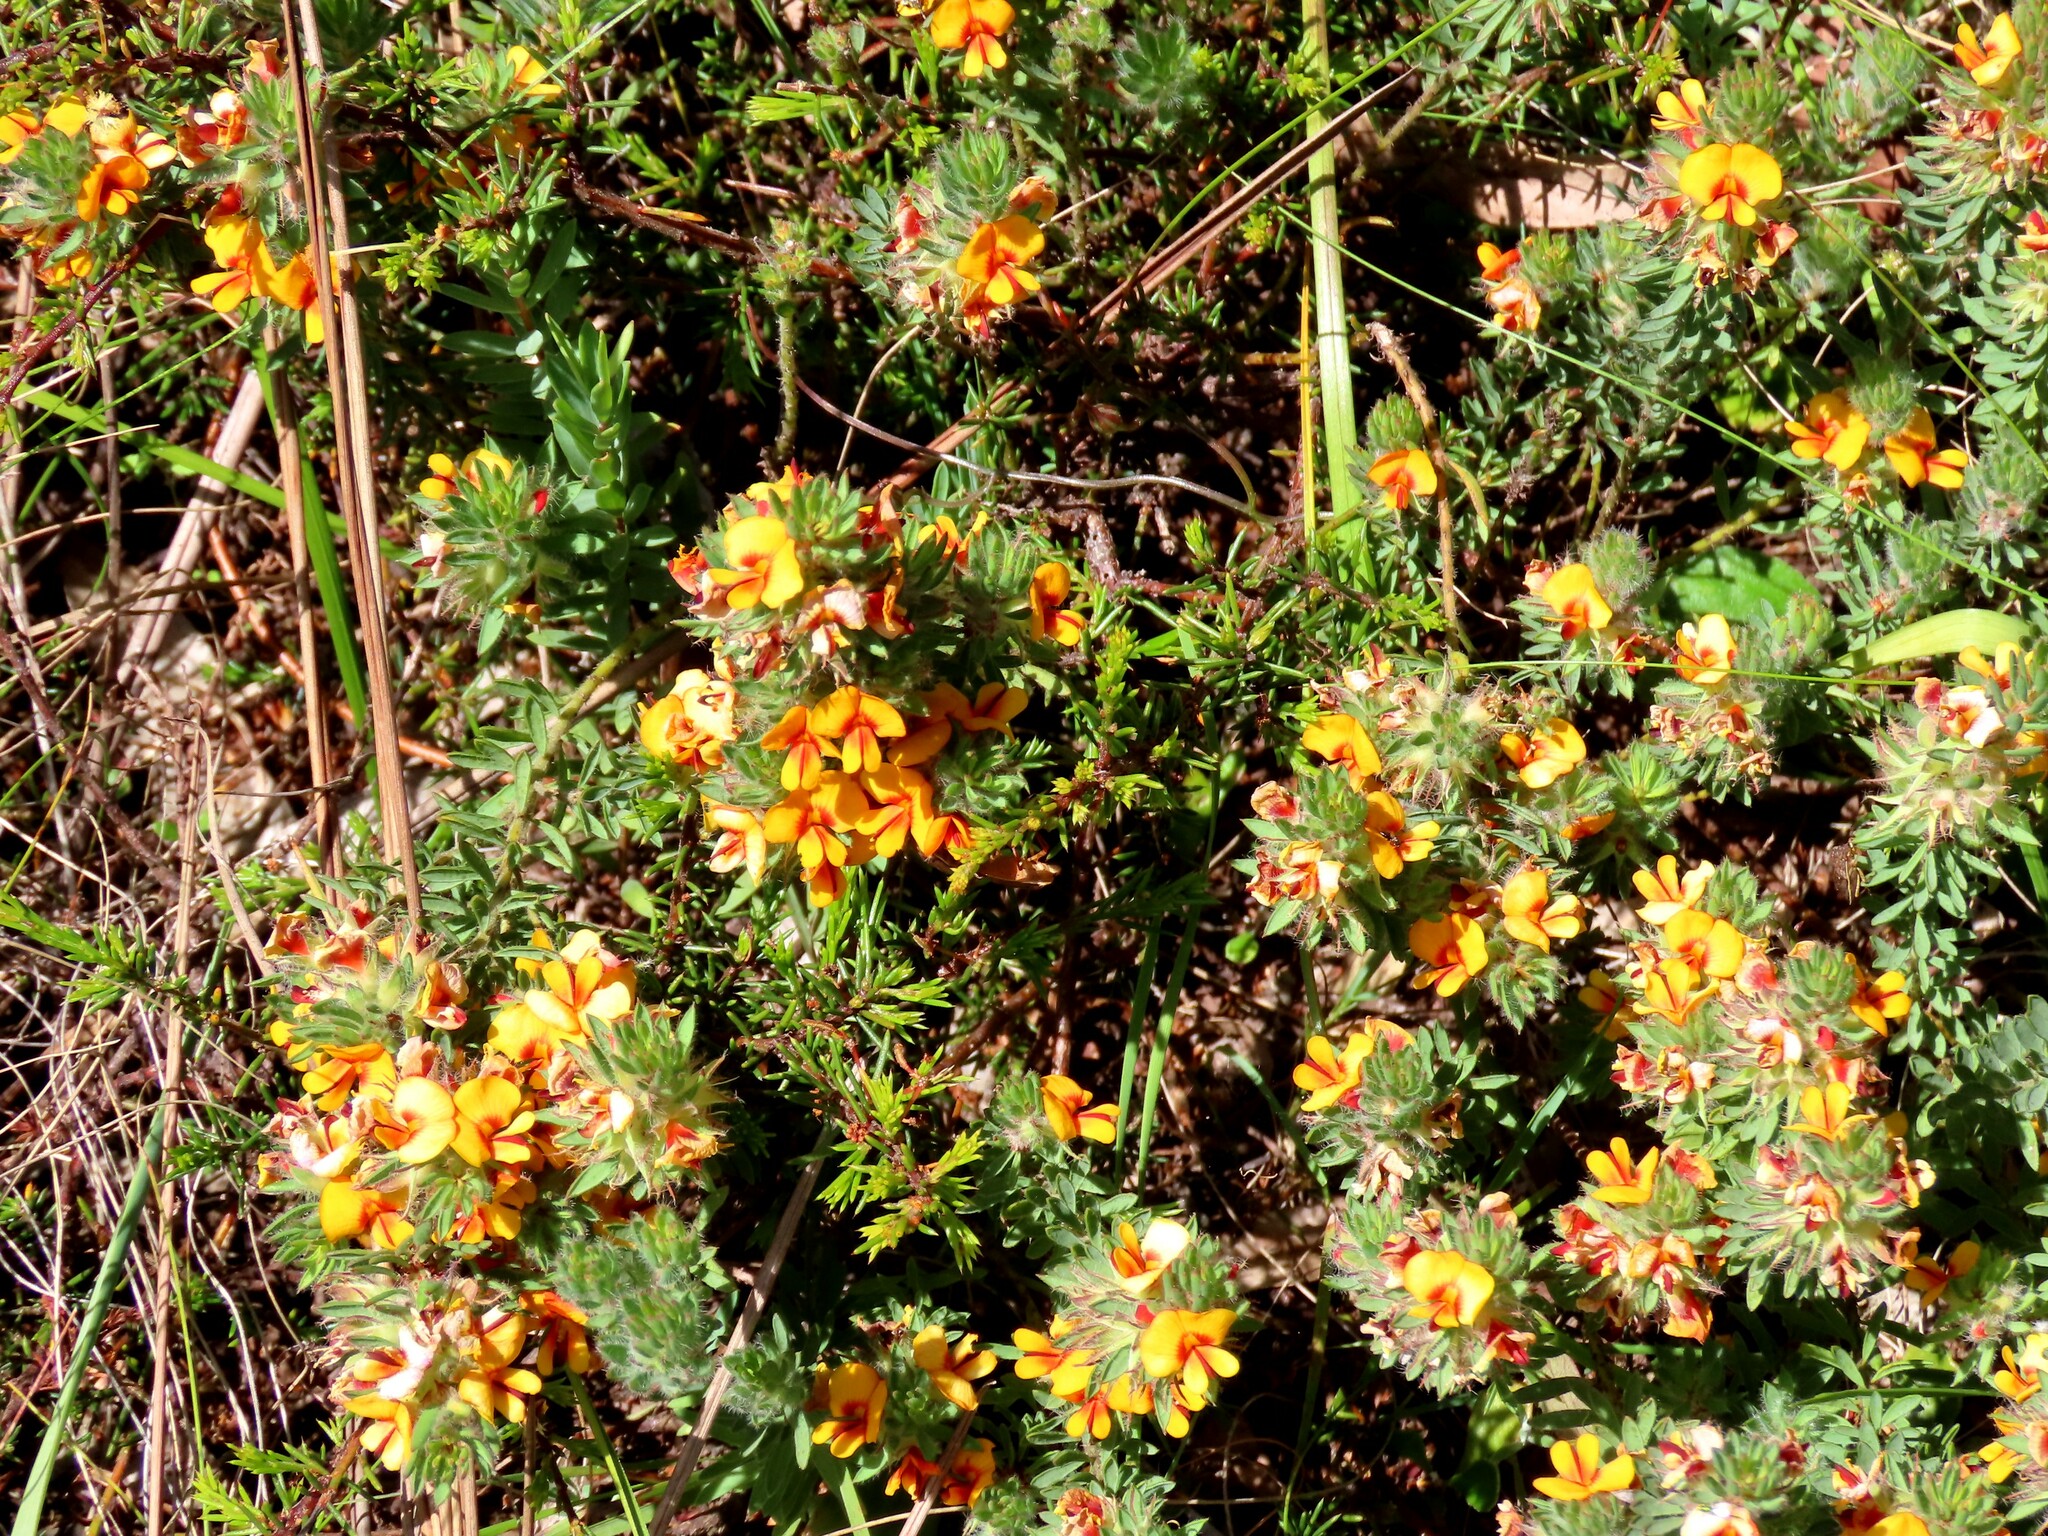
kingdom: Plantae
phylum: Tracheophyta
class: Magnoliopsida
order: Fabales
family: Fabaceae
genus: Pultenaea
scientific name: Pultenaea humilis
